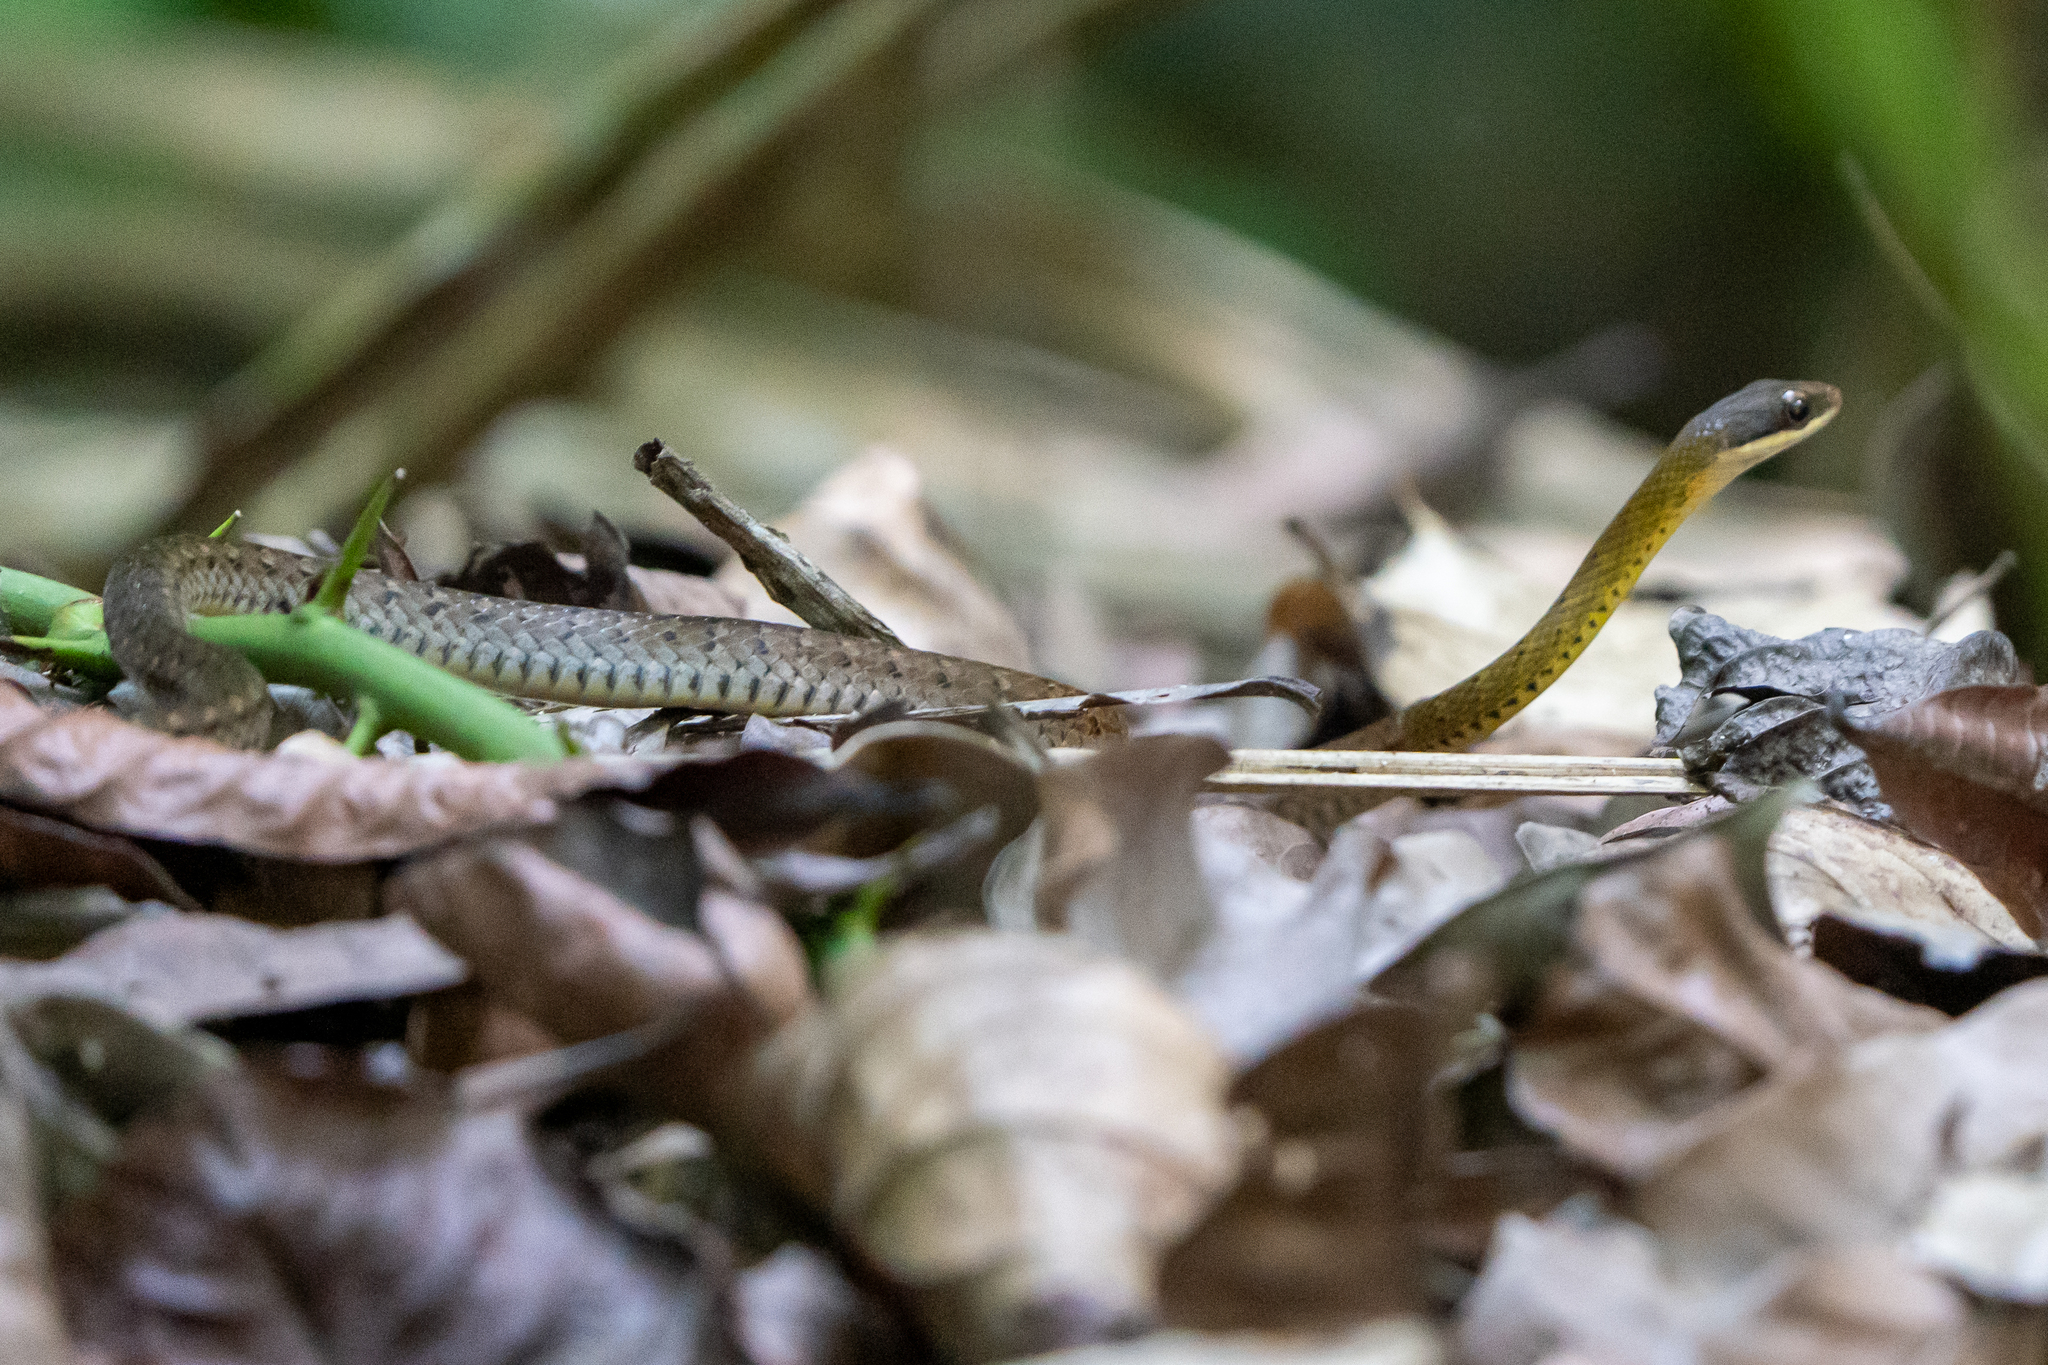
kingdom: Animalia
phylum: Chordata
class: Squamata
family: Colubridae
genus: Dendrophidion
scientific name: Dendrophidion percarinatum
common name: South american forest racer
